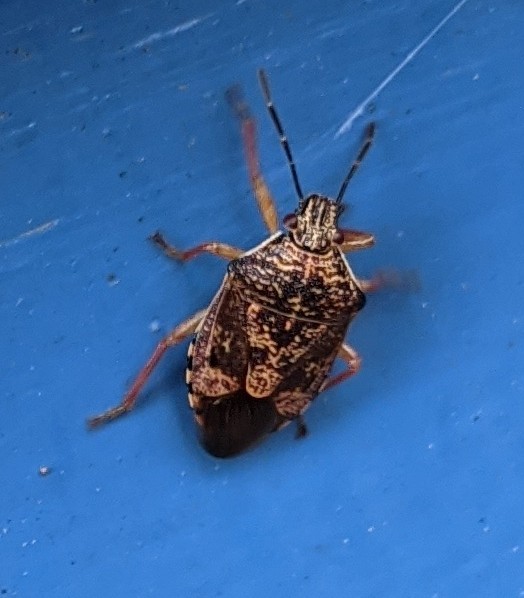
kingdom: Animalia
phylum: Arthropoda
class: Insecta
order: Hemiptera
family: Pentatomidae
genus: Podisus
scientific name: Podisus placidus
